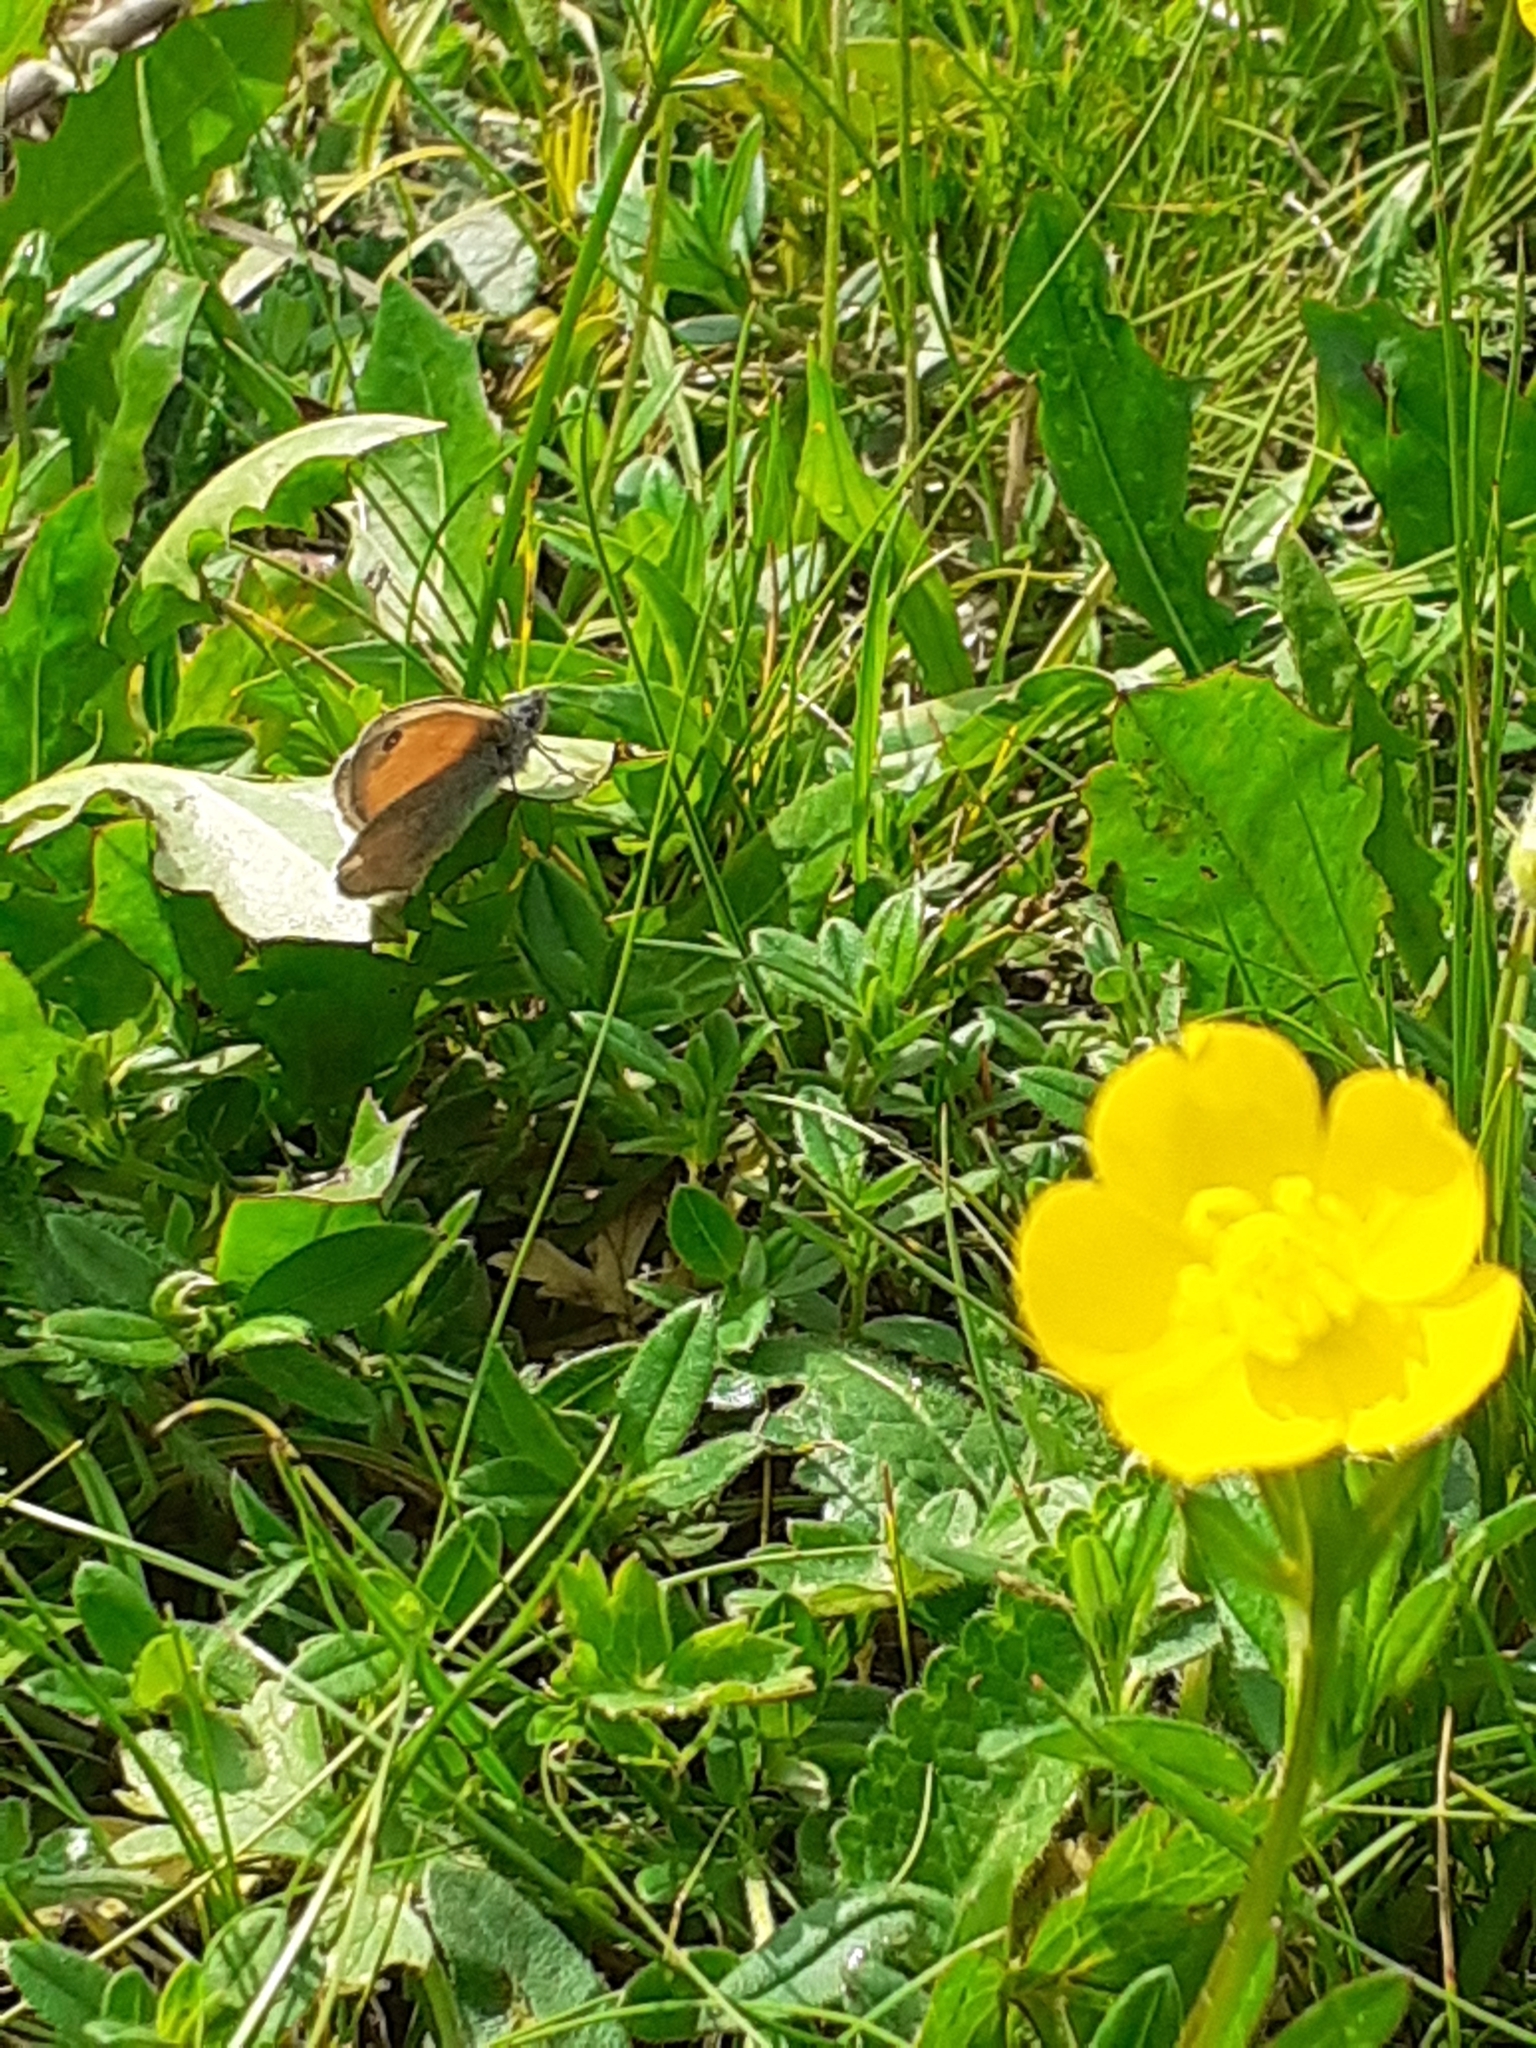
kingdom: Animalia
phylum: Arthropoda
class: Insecta
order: Lepidoptera
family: Nymphalidae
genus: Coenonympha
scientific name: Coenonympha pamphilus
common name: Small heath
